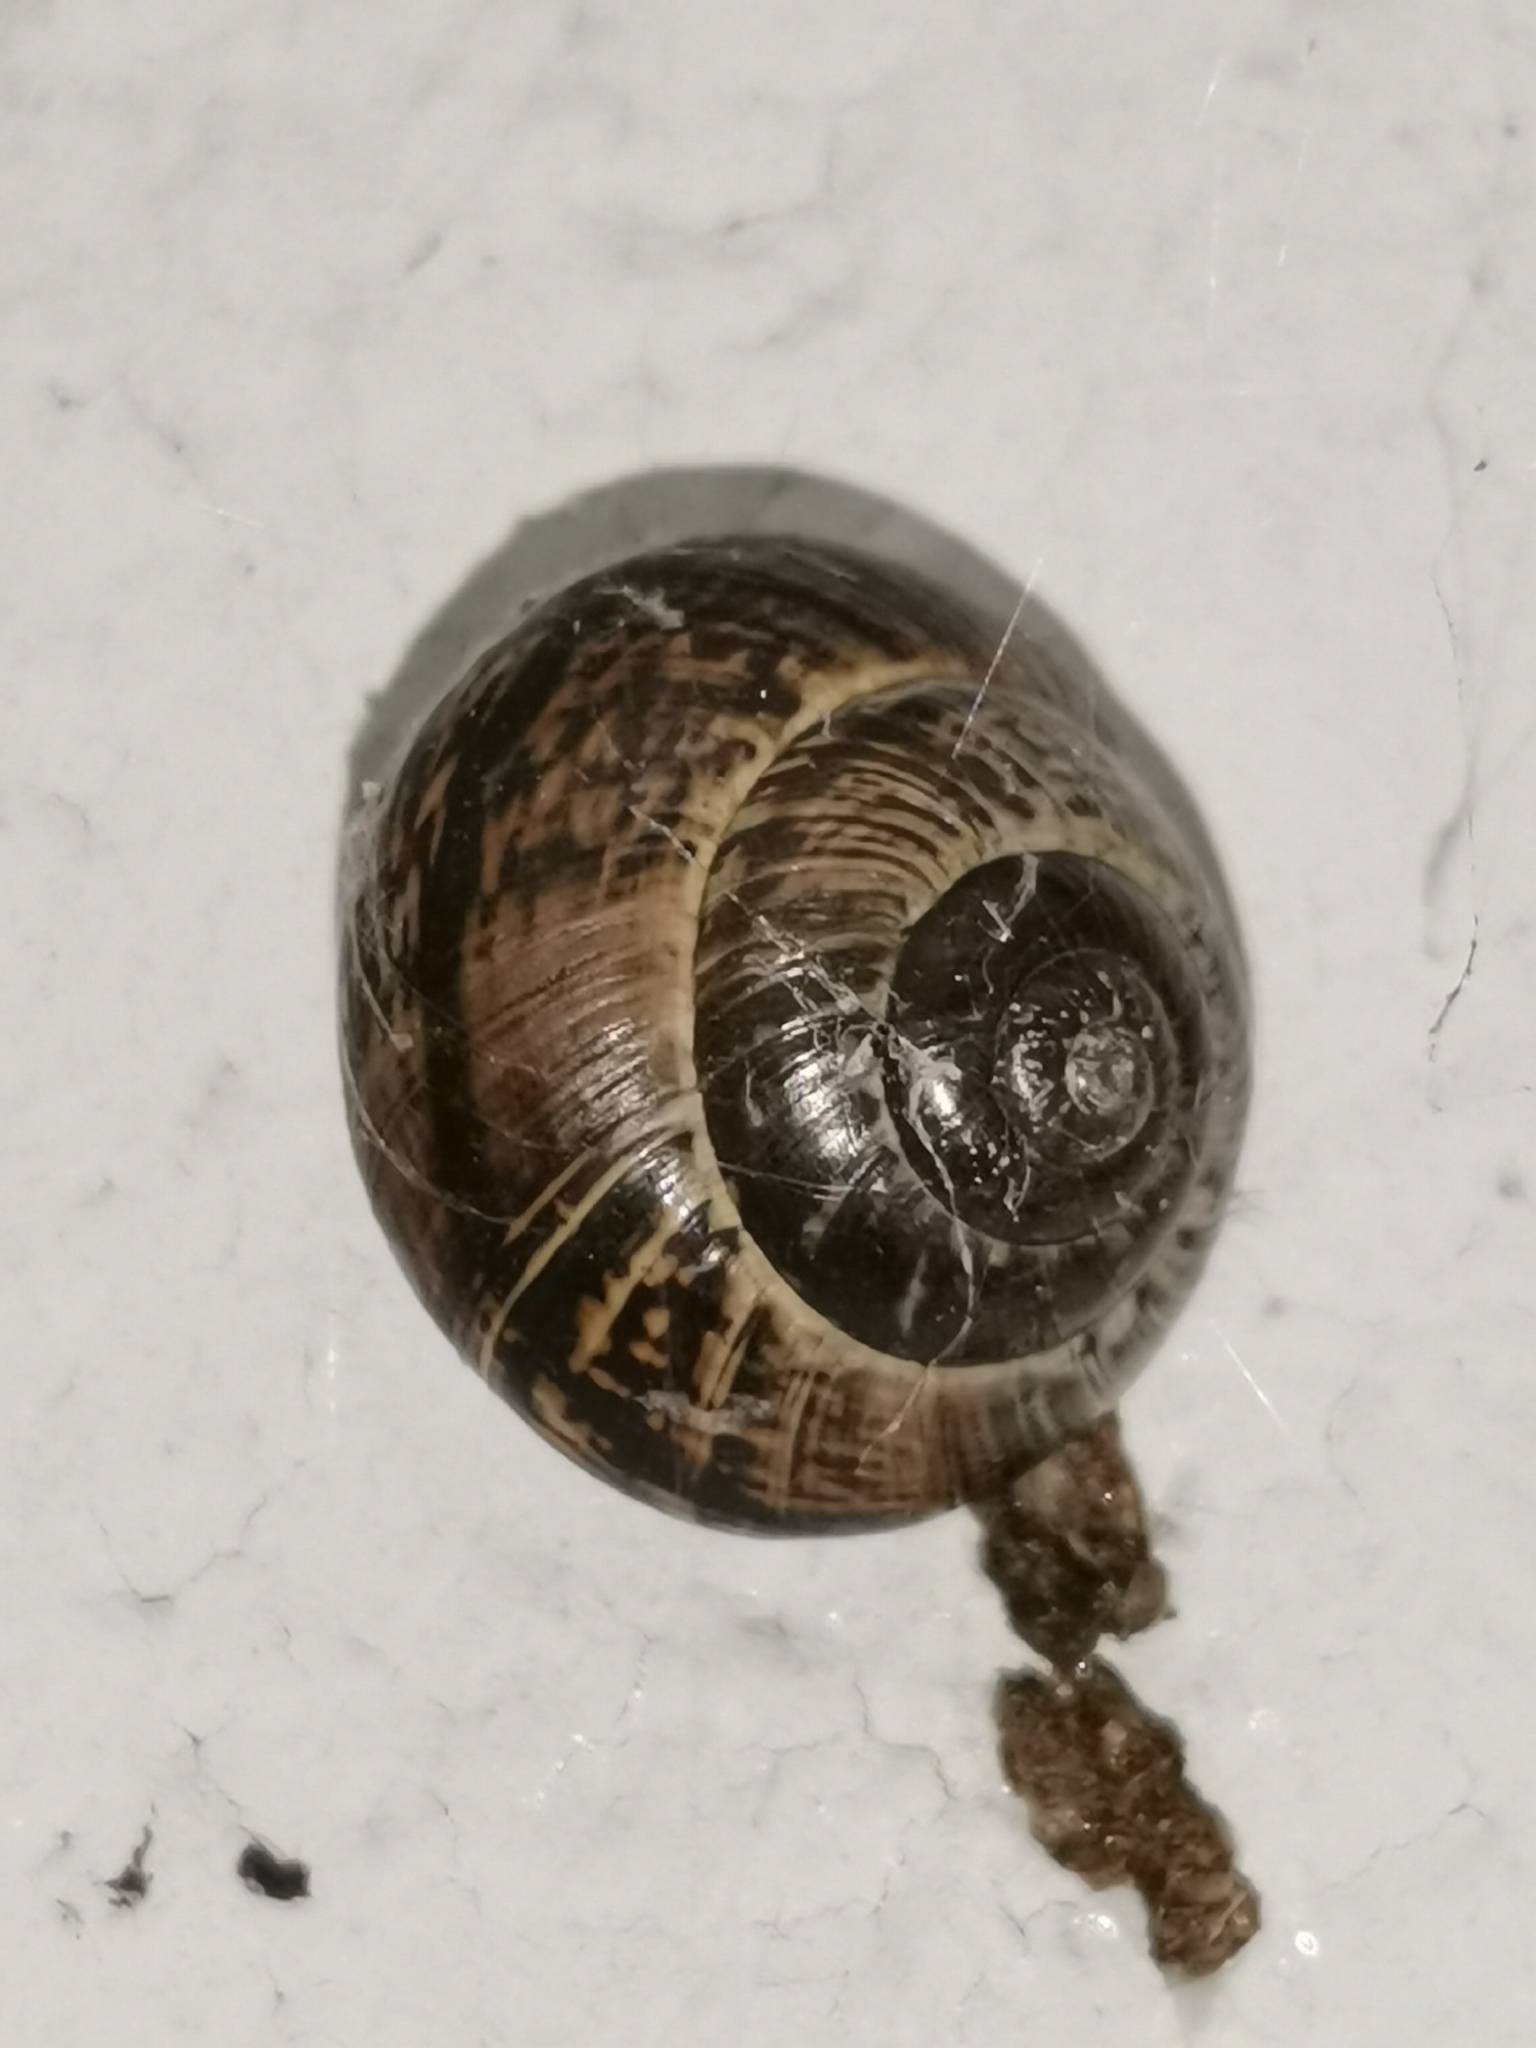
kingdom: Animalia
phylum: Mollusca
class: Gastropoda
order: Stylommatophora
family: Helicidae
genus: Arianta
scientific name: Arianta arbustorum
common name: Copse snail
